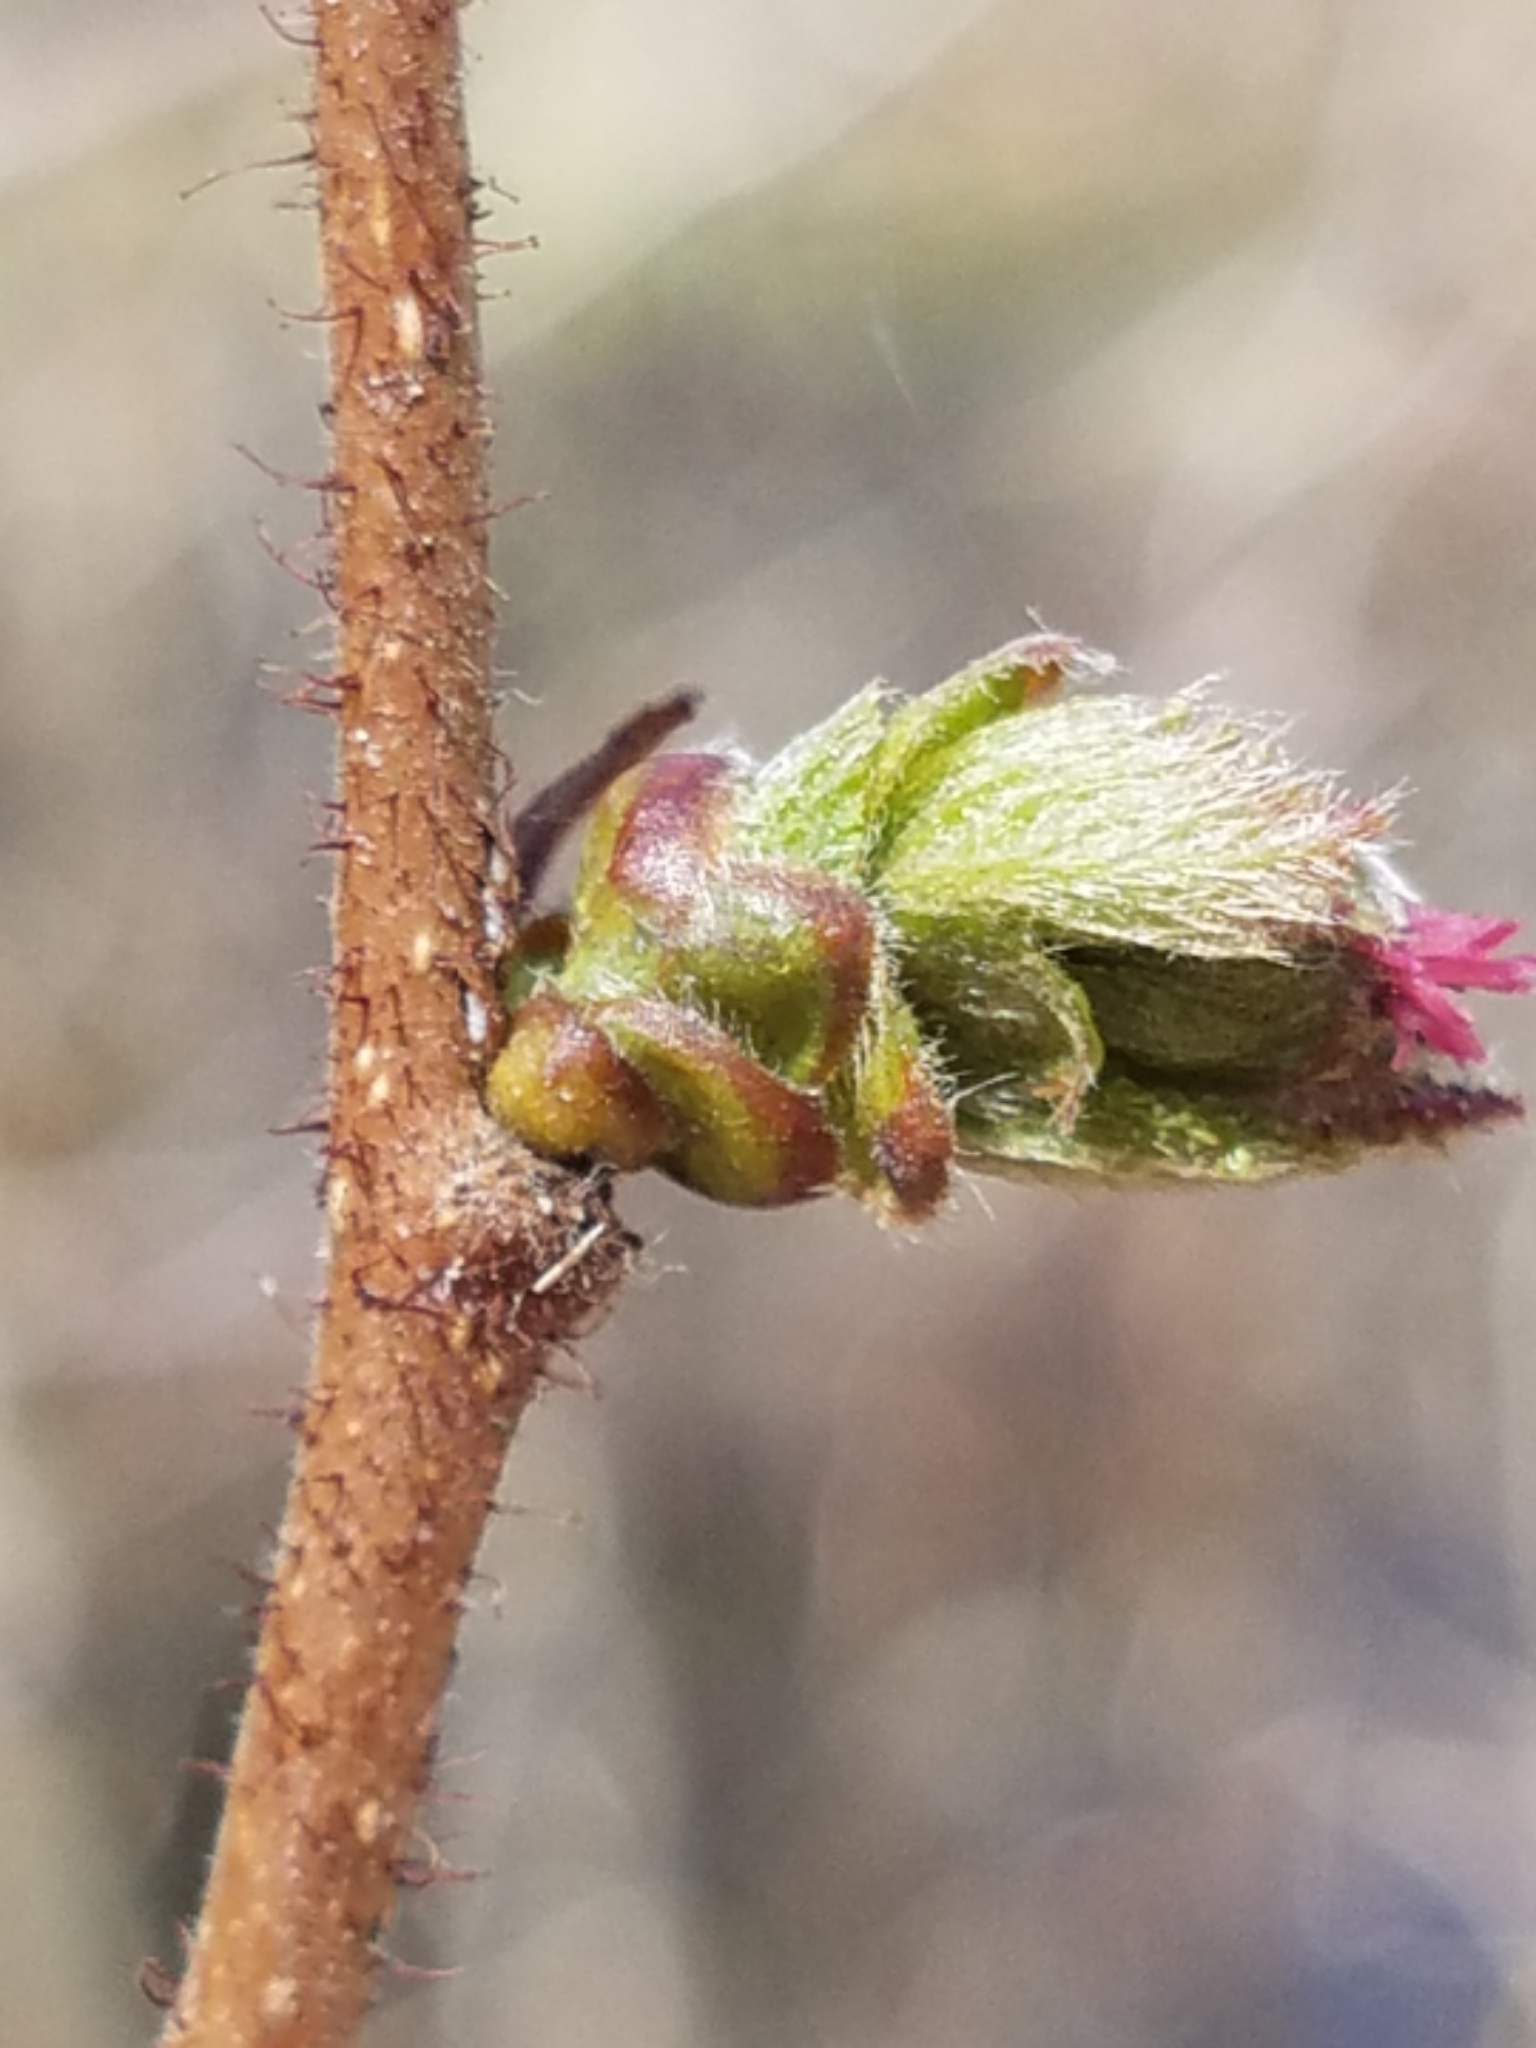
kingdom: Plantae
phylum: Tracheophyta
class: Magnoliopsida
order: Fagales
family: Betulaceae
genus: Corylus
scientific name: Corylus americana
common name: American hazel
